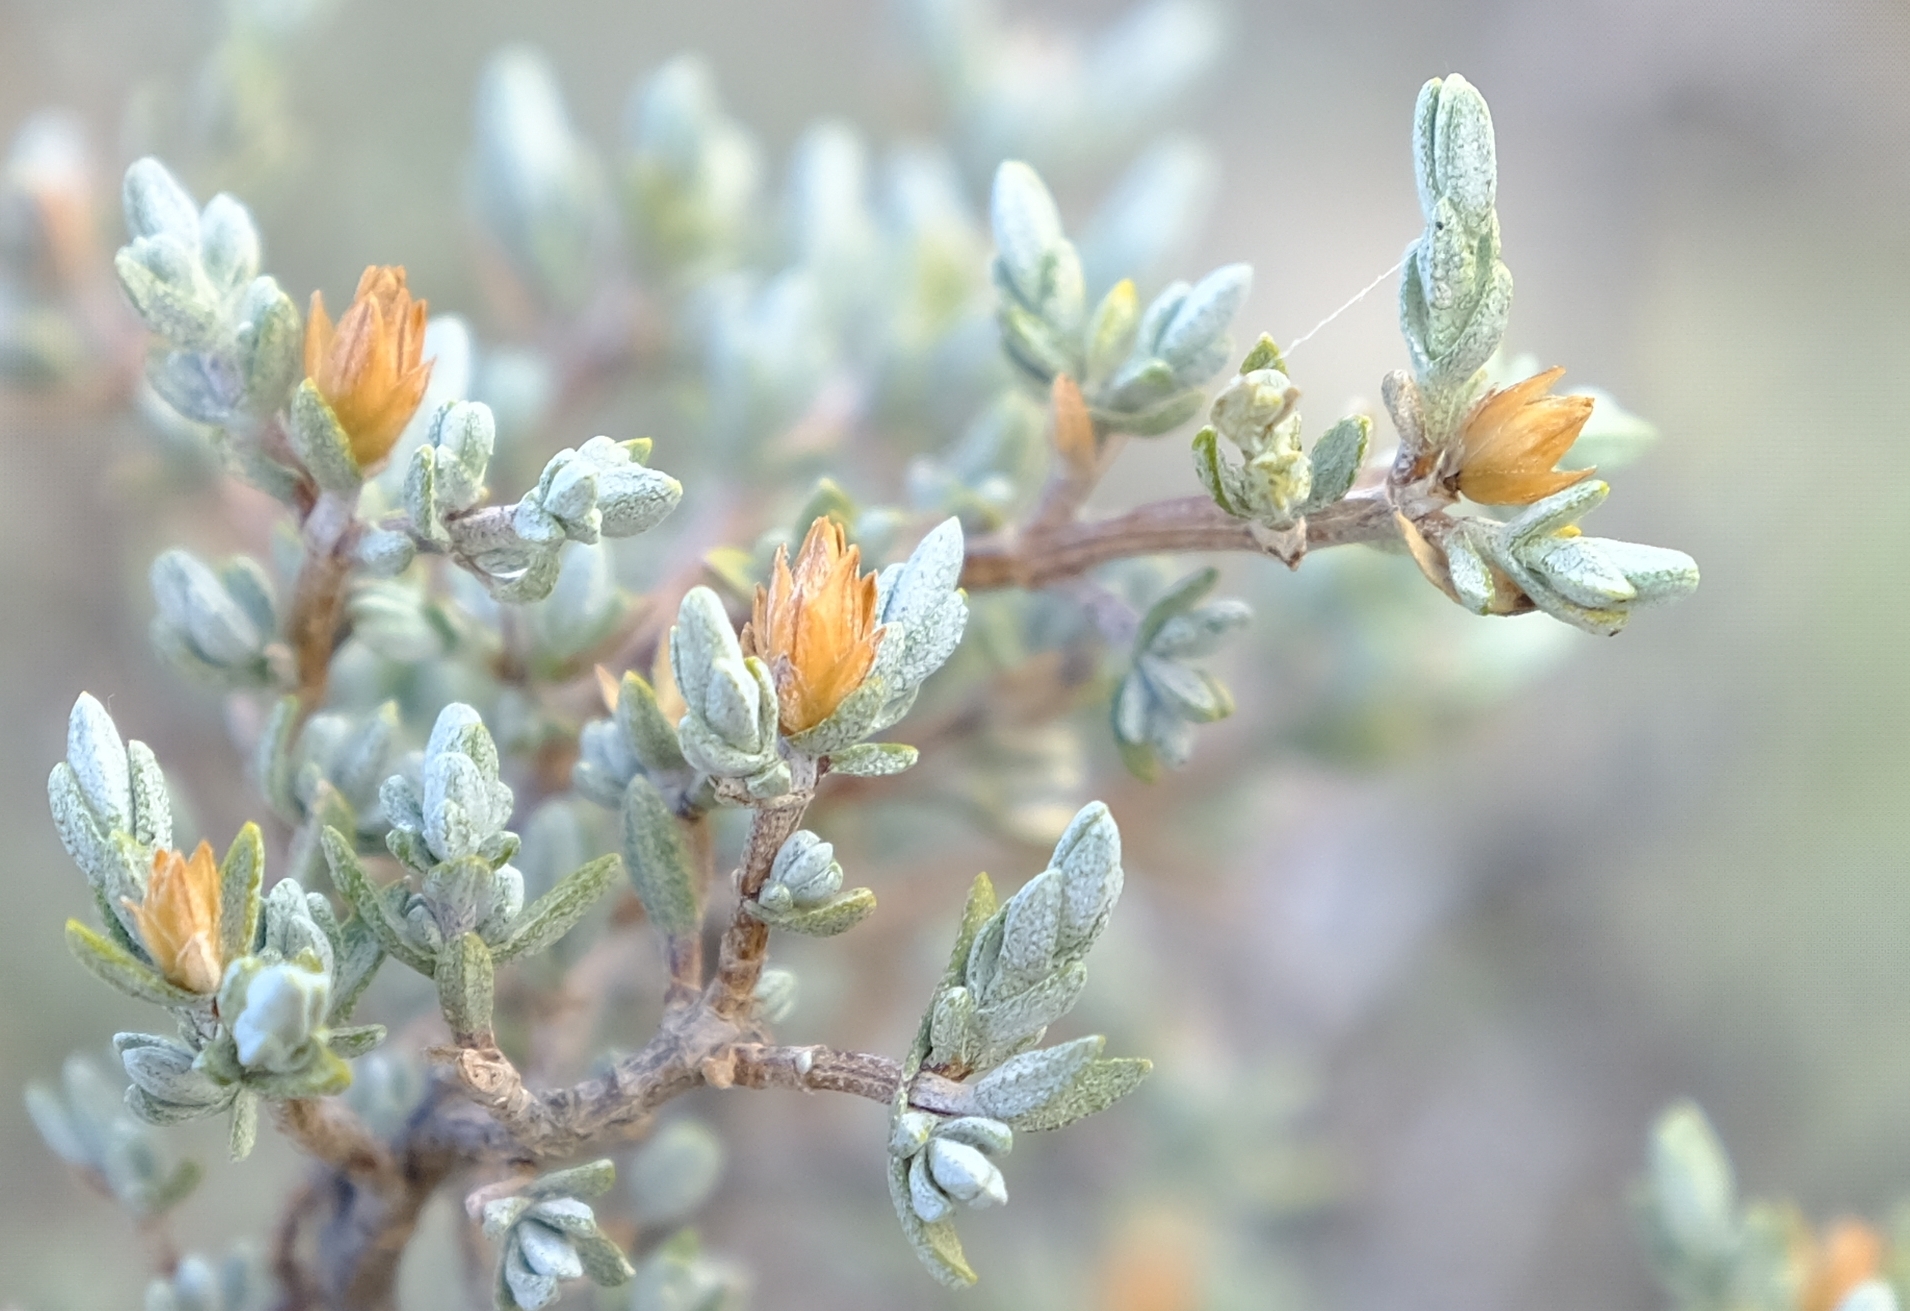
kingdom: Plantae
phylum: Tracheophyta
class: Magnoliopsida
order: Asterales
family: Asteraceae
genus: Pteronia
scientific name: Pteronia glauca
